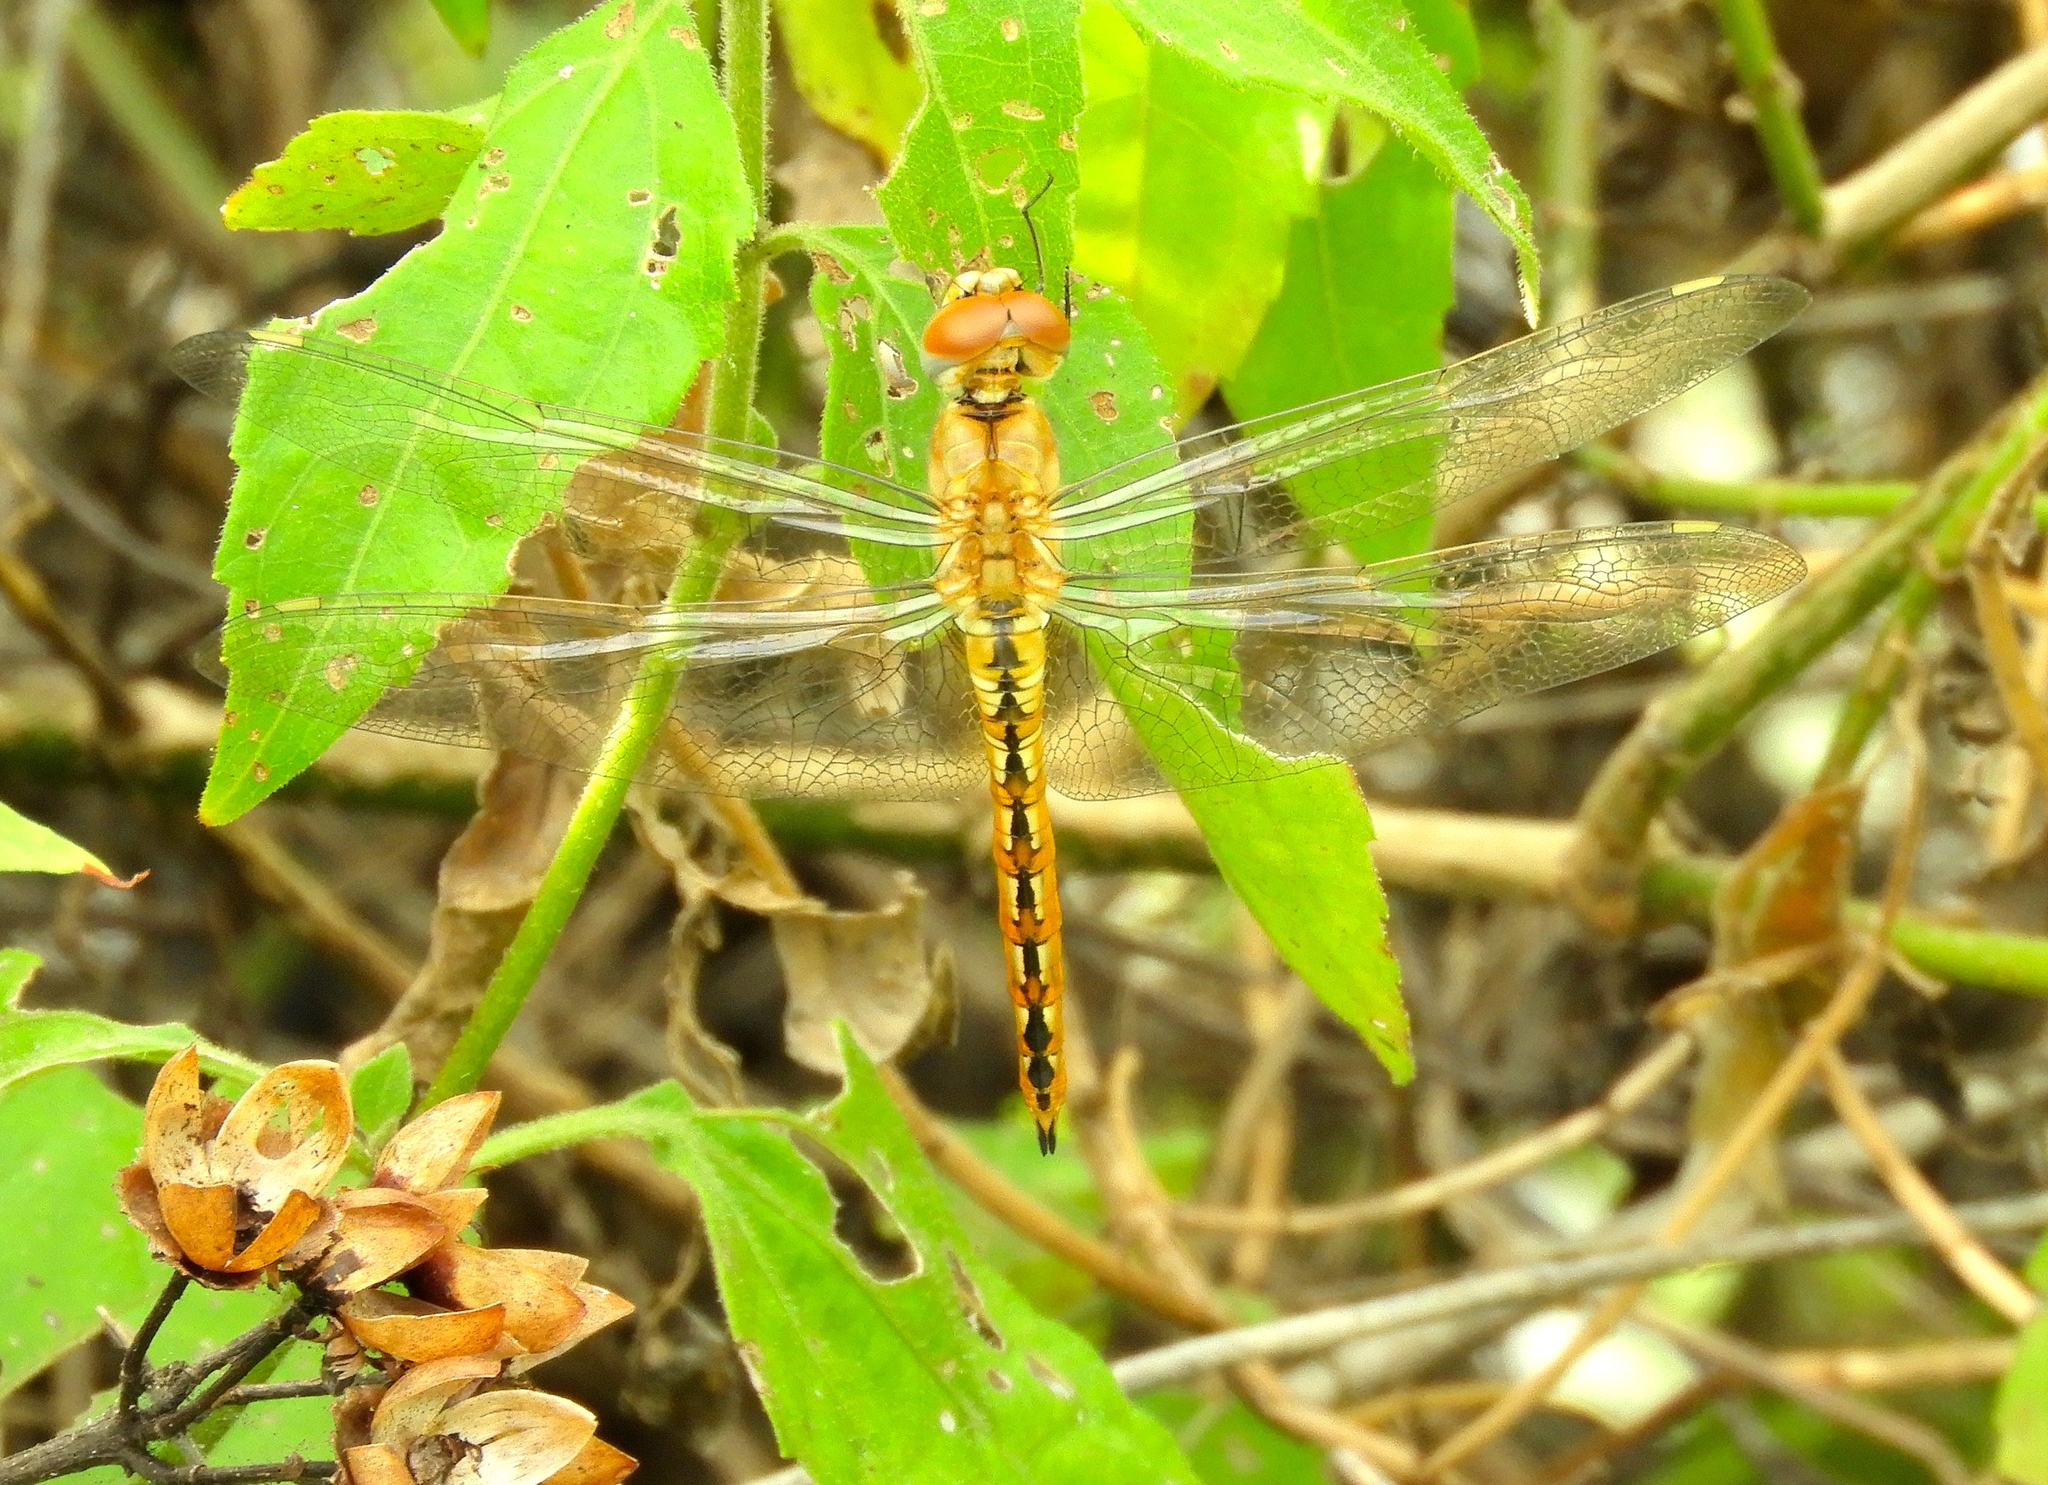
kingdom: Animalia
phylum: Arthropoda
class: Insecta
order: Odonata
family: Libellulidae
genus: Pantala
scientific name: Pantala flavescens
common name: Wandering glider
